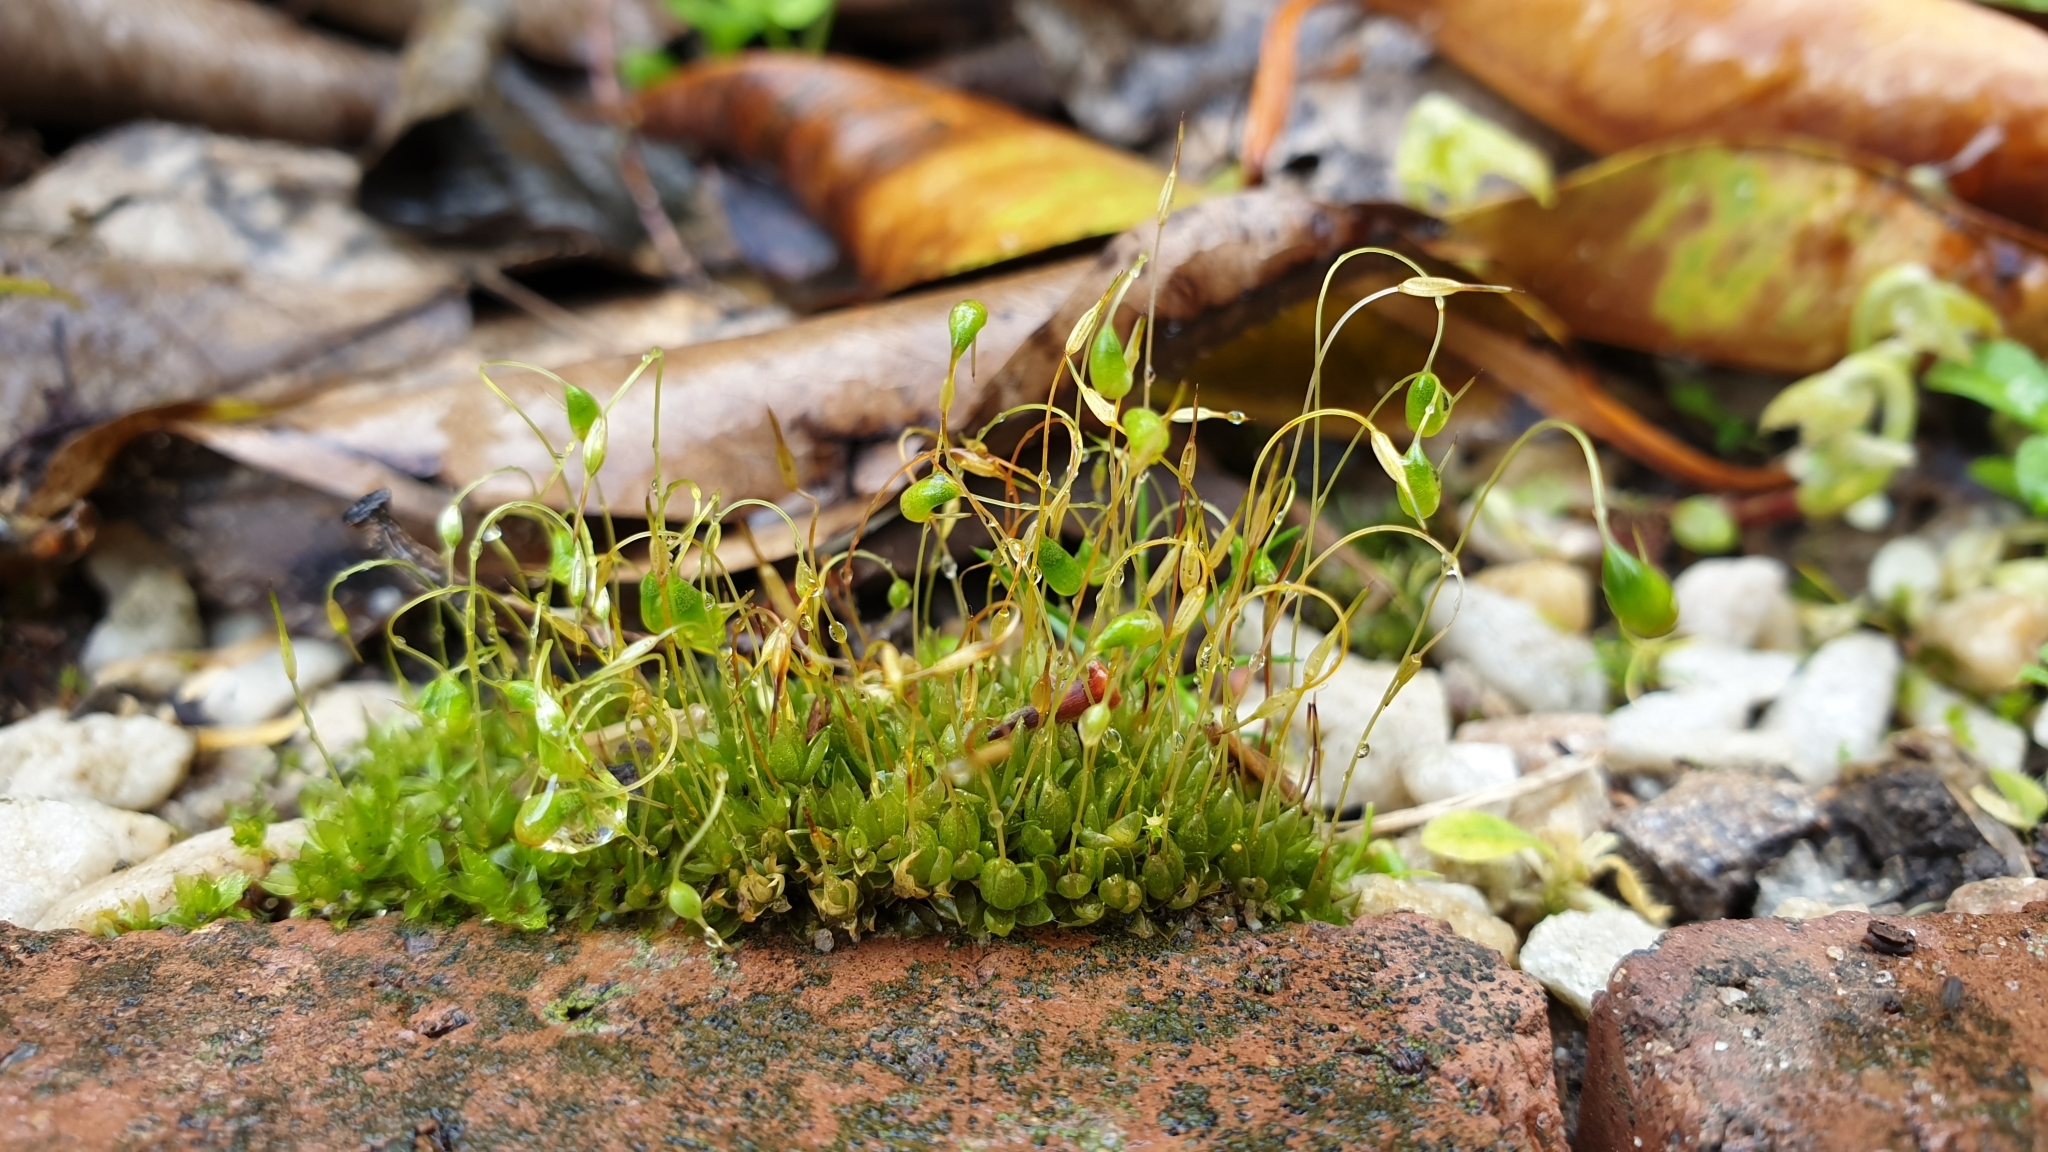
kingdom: Plantae
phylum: Bryophyta
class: Bryopsida
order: Funariales
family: Funariaceae
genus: Funaria
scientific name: Funaria hygrometrica
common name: Common cord moss
